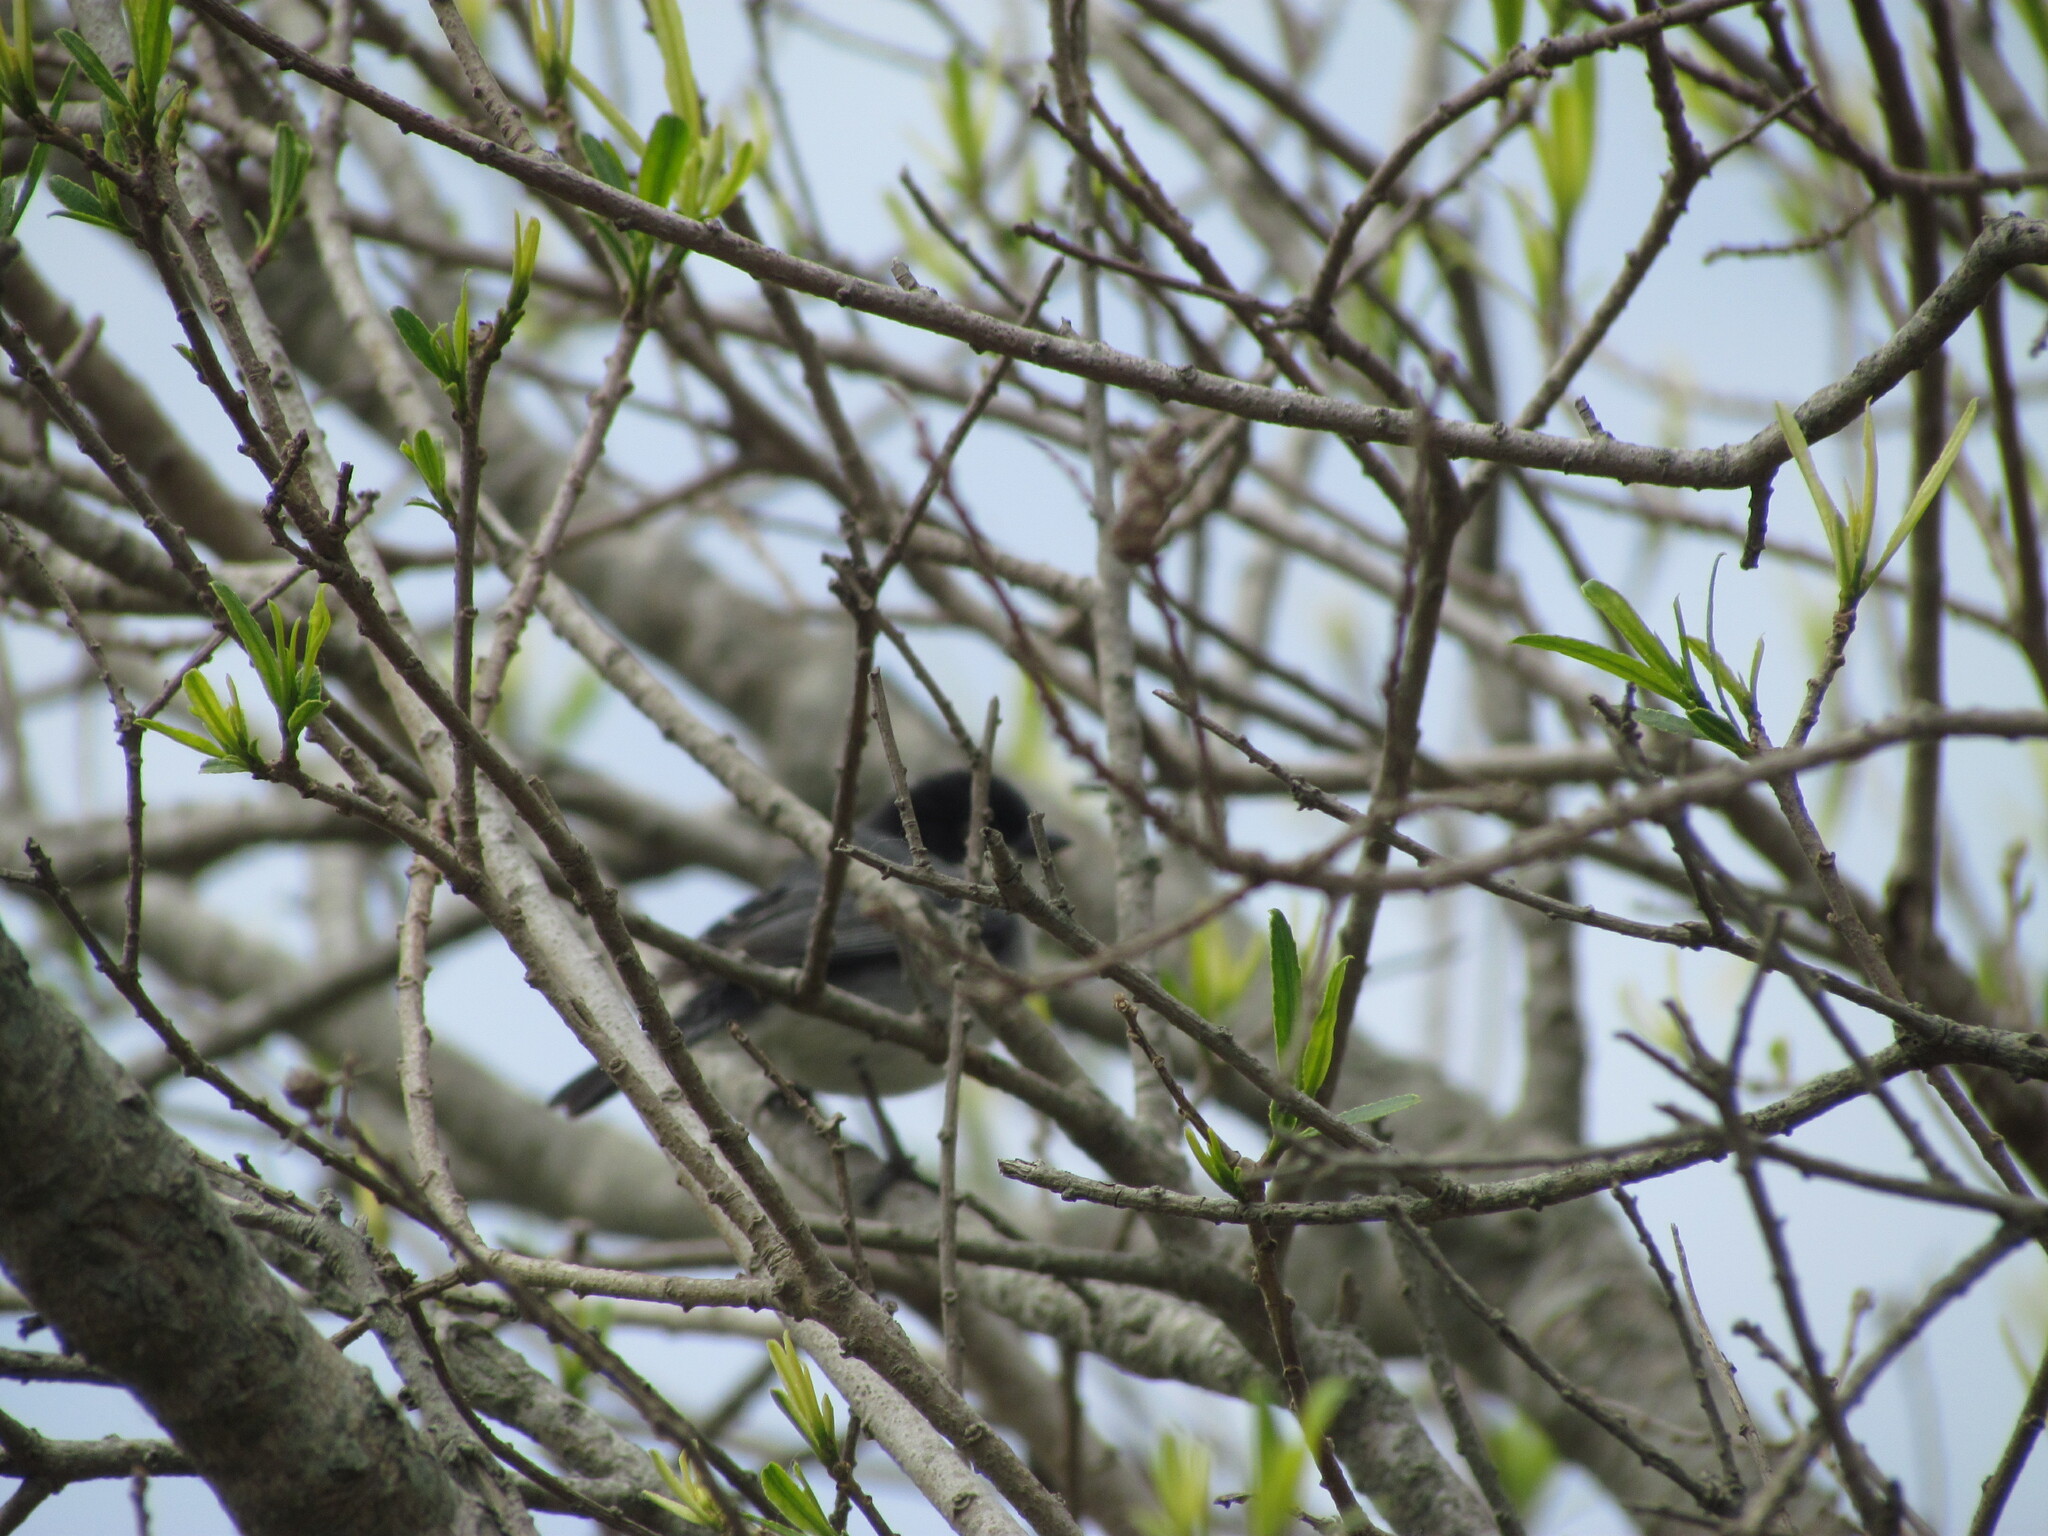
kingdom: Animalia
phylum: Chordata
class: Aves
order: Passeriformes
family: Thraupidae
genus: Microspingus
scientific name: Microspingus melanoleucus
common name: Black-capped warbling-finch
